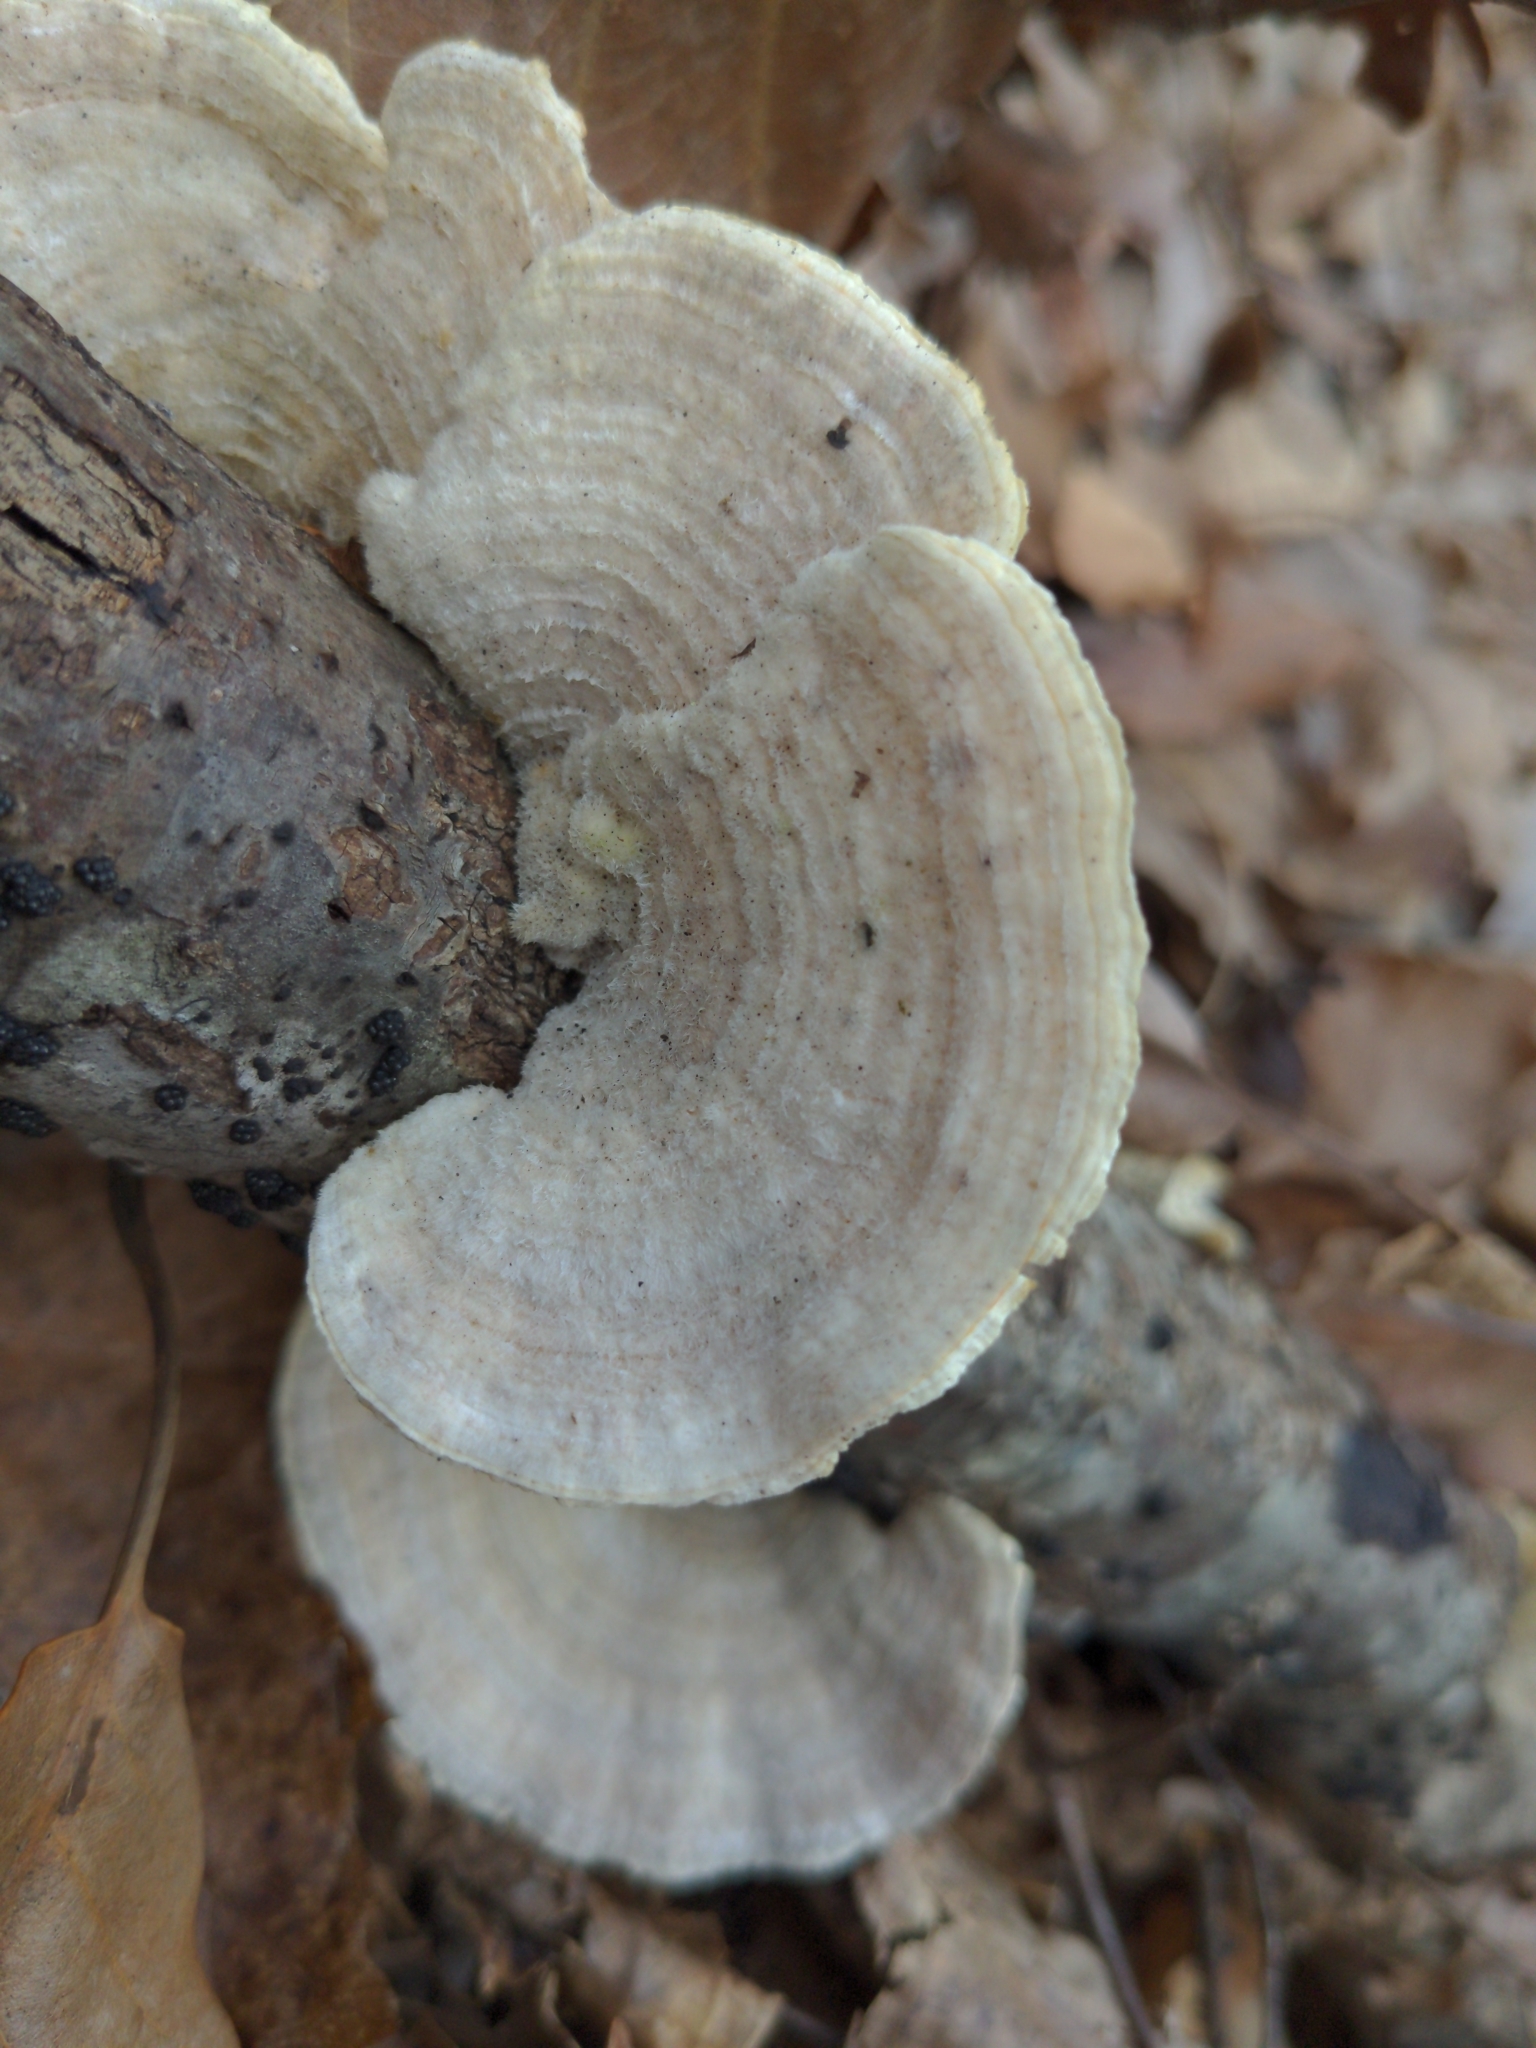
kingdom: Fungi
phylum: Basidiomycota
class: Agaricomycetes
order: Polyporales
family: Polyporaceae
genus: Lenzites
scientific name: Lenzites betulinus
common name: Birch mazegill
